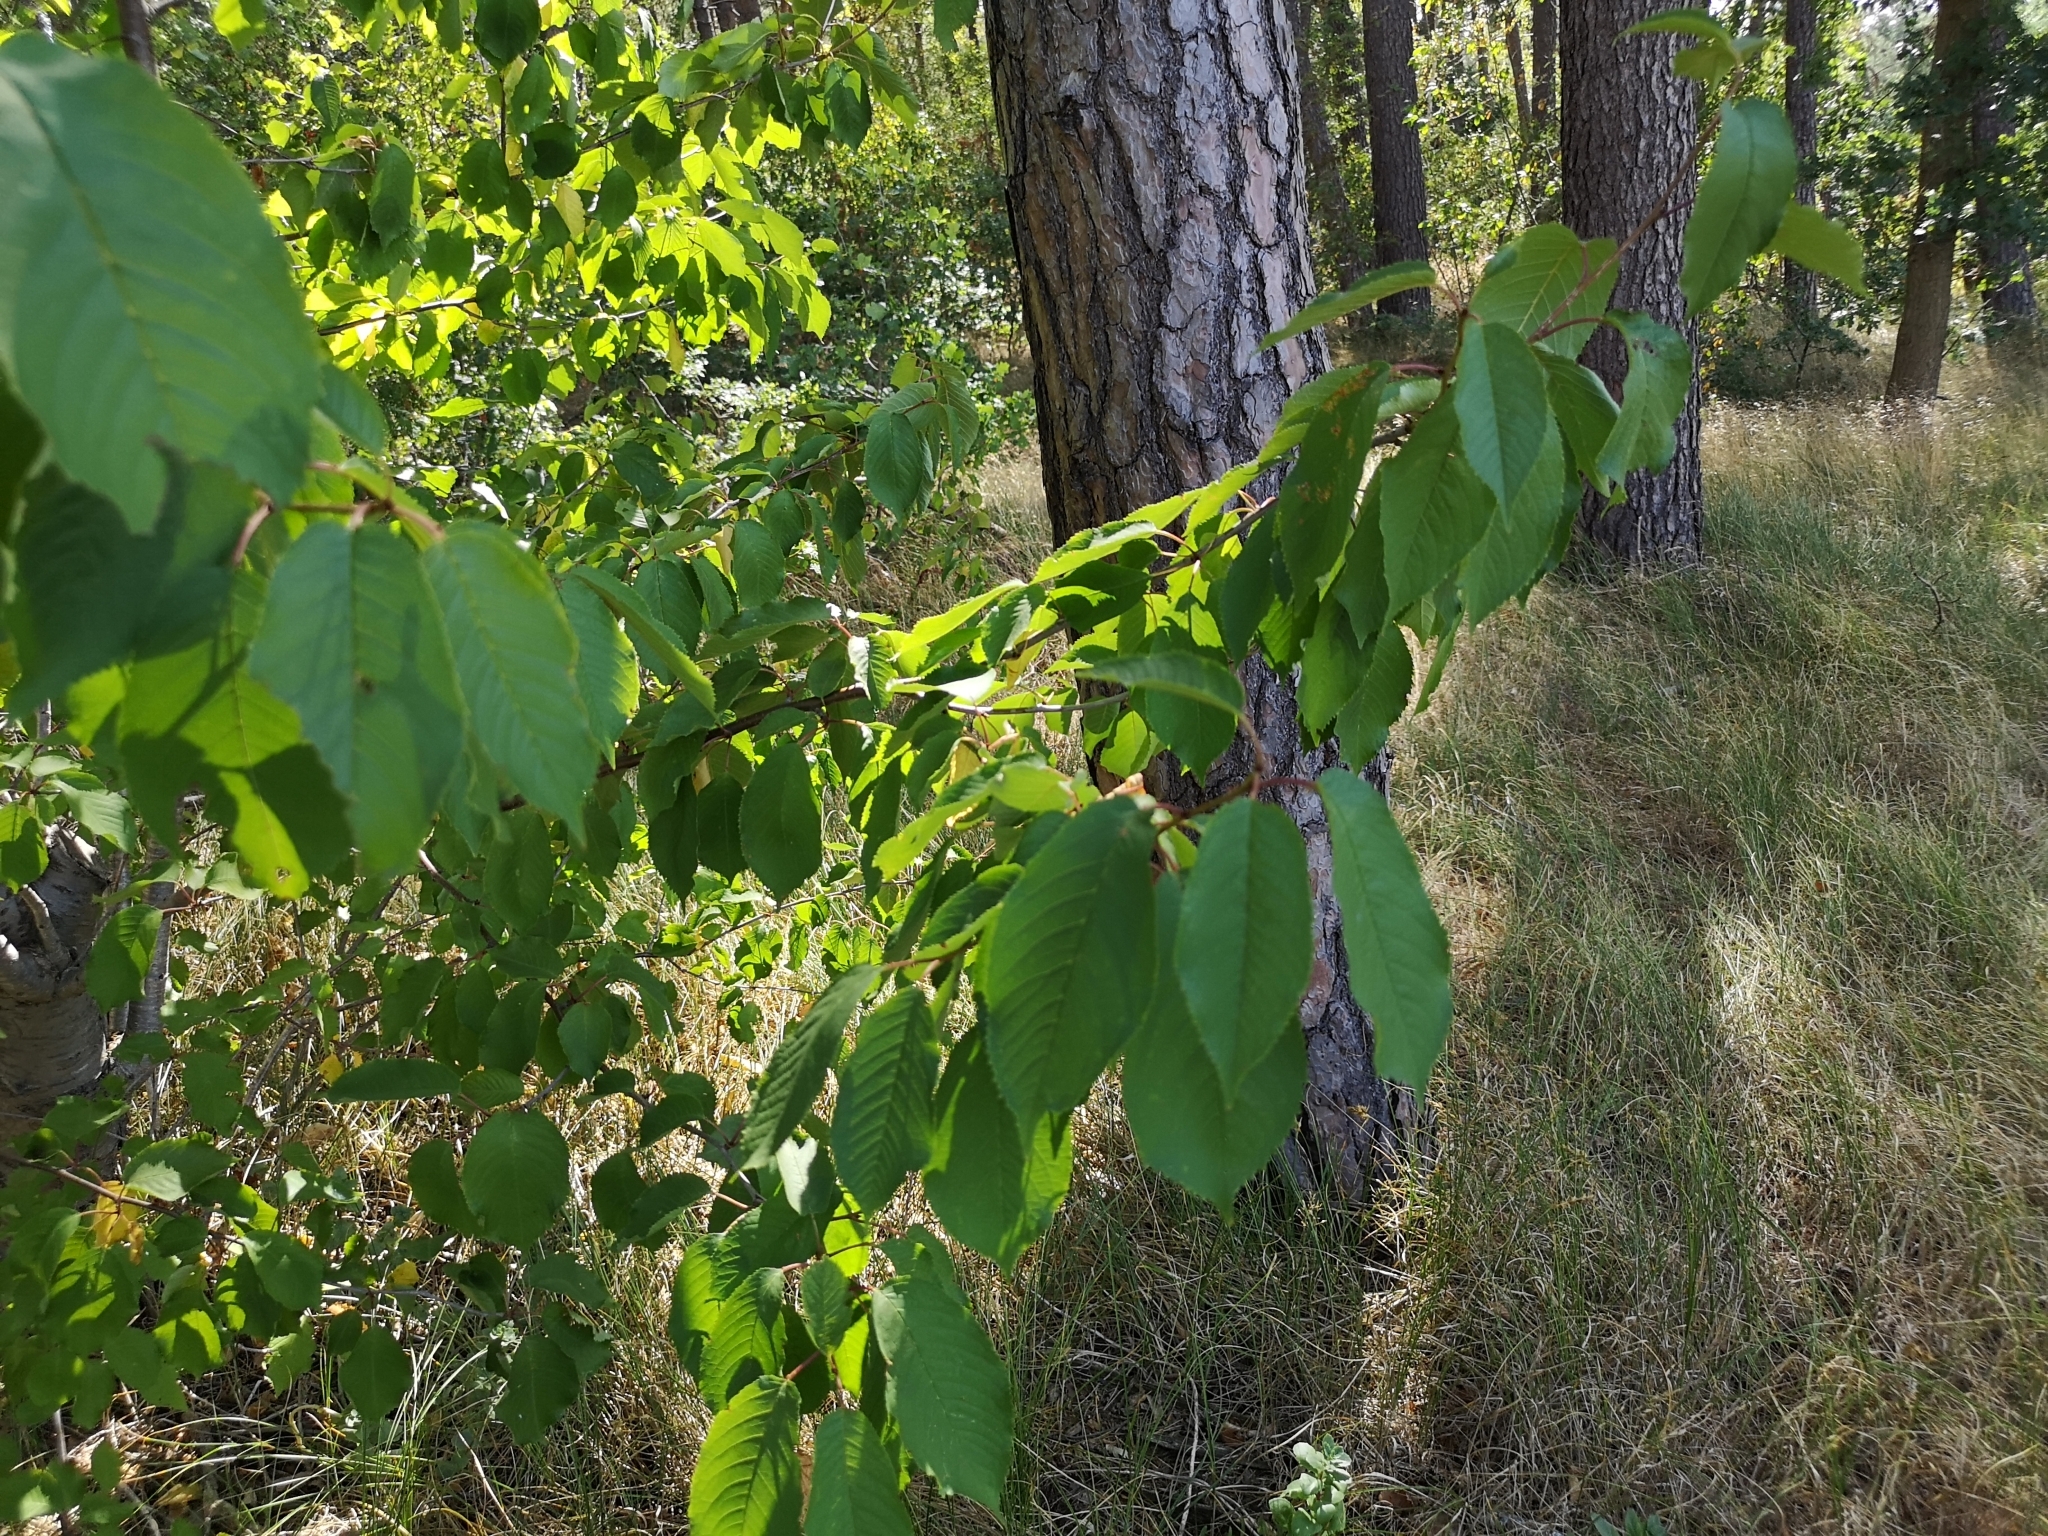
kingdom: Plantae
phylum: Tracheophyta
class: Magnoliopsida
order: Rosales
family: Rosaceae
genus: Prunus
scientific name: Prunus avium
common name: Sweet cherry
